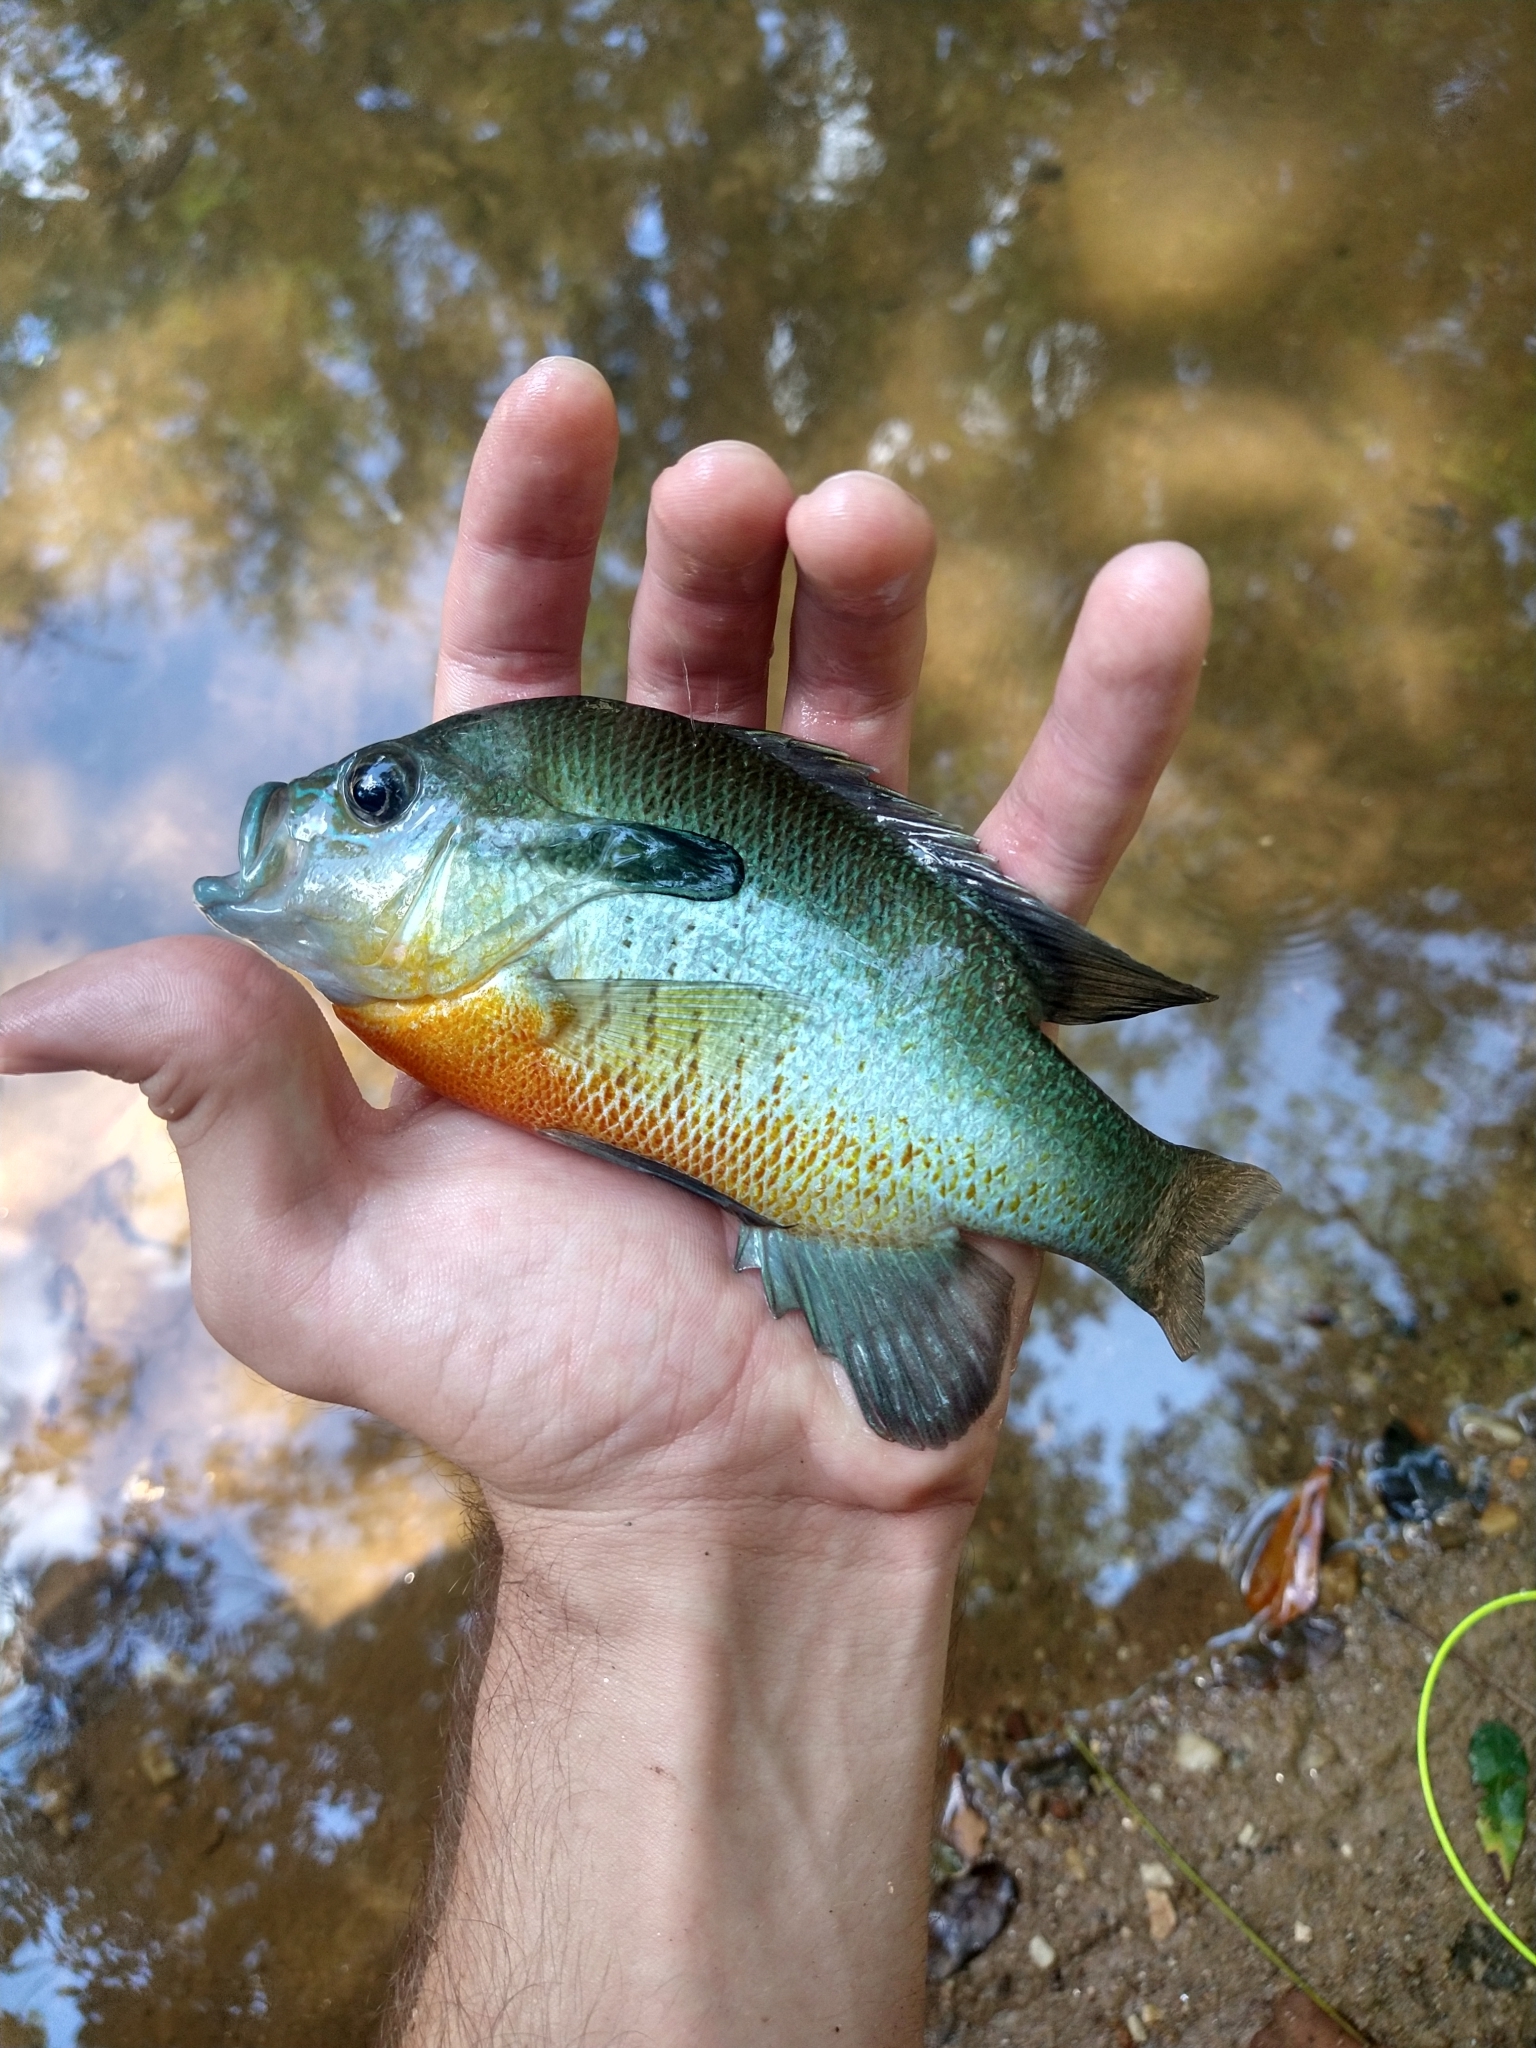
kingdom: Animalia
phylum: Chordata
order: Perciformes
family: Centrarchidae
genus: Lepomis
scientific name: Lepomis auritus
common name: Redbreast sunfish
